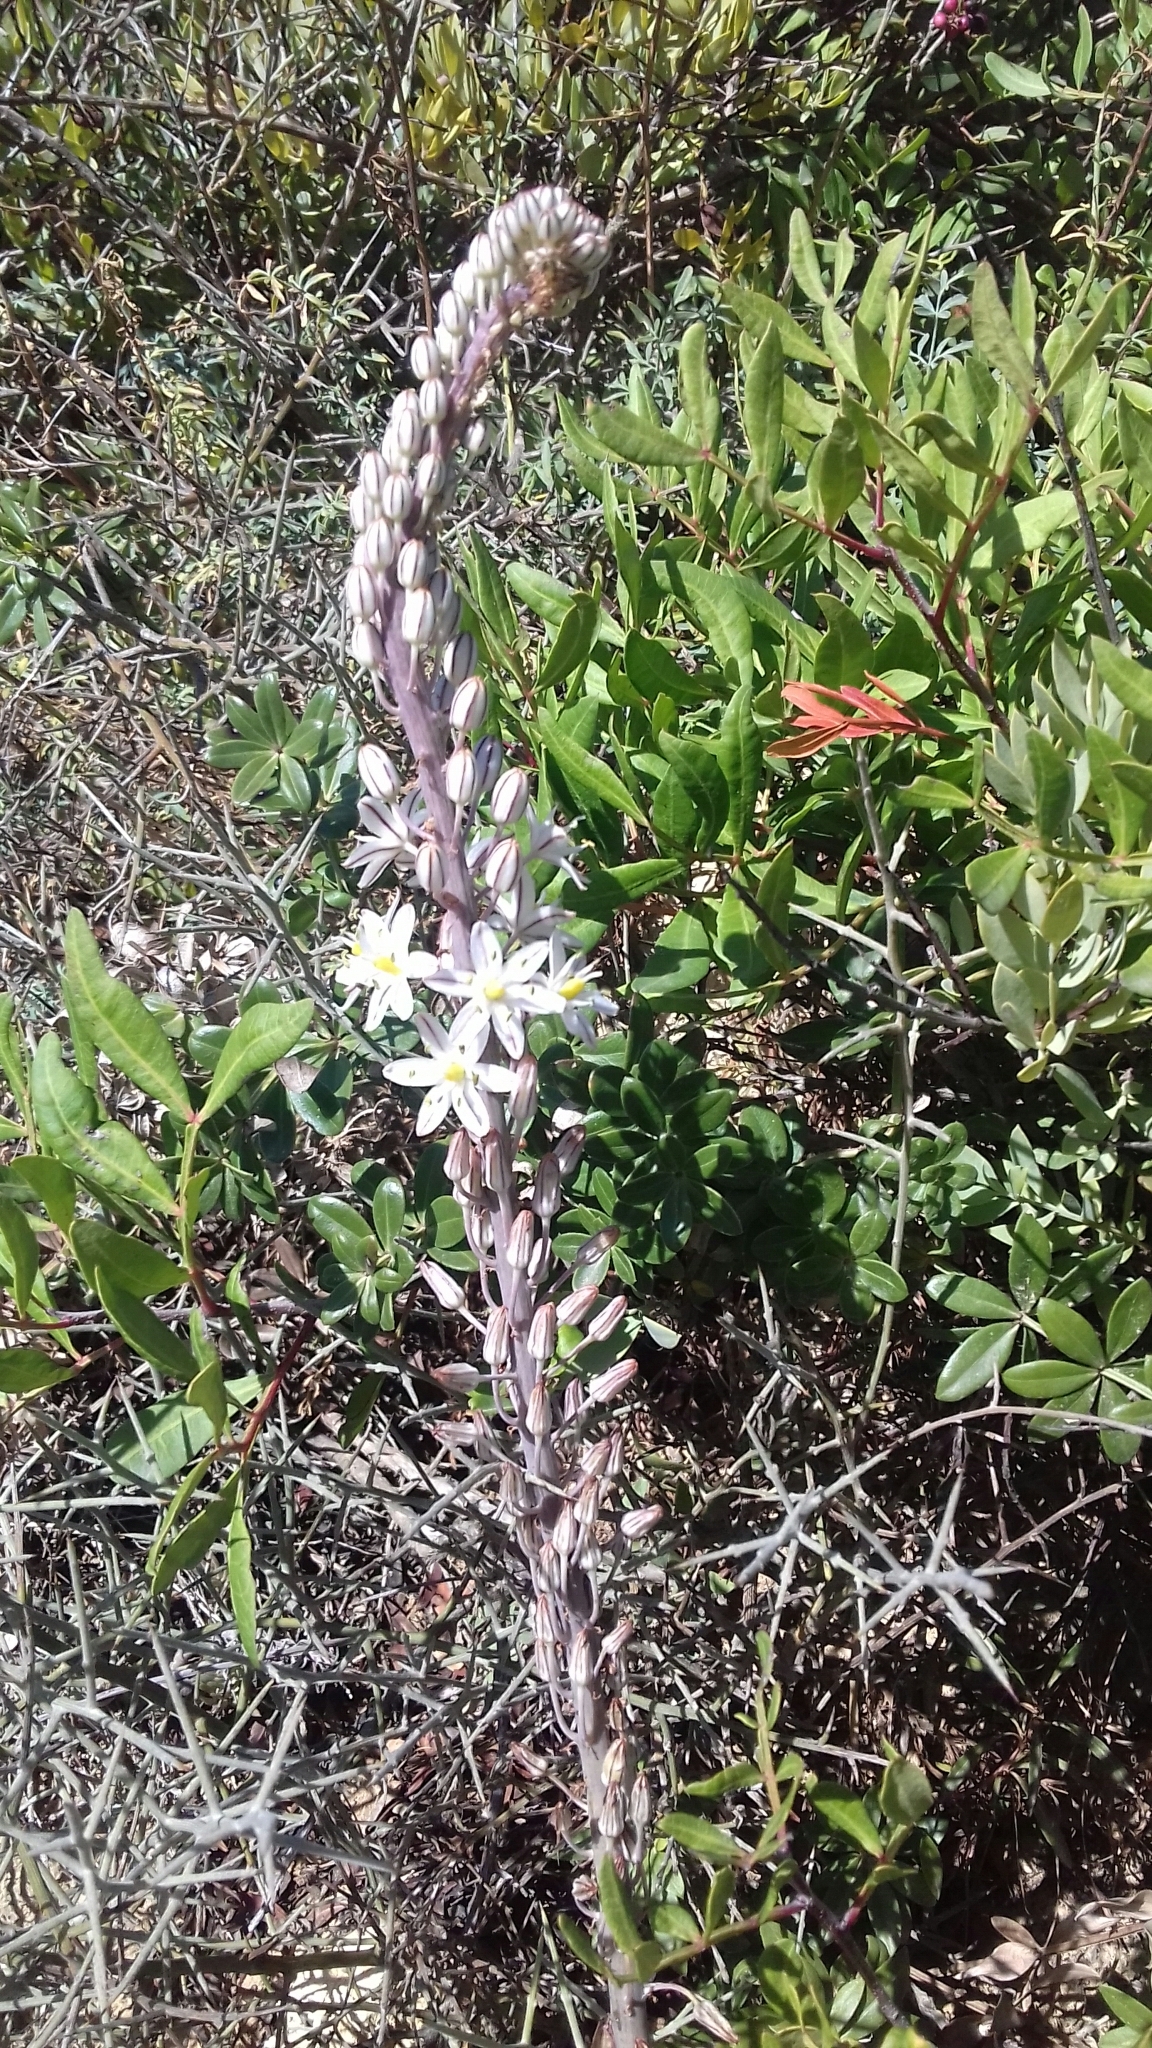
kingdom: Plantae
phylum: Tracheophyta
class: Liliopsida
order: Asparagales
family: Asparagaceae
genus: Drimia
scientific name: Drimia maritima
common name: Maritime squill
